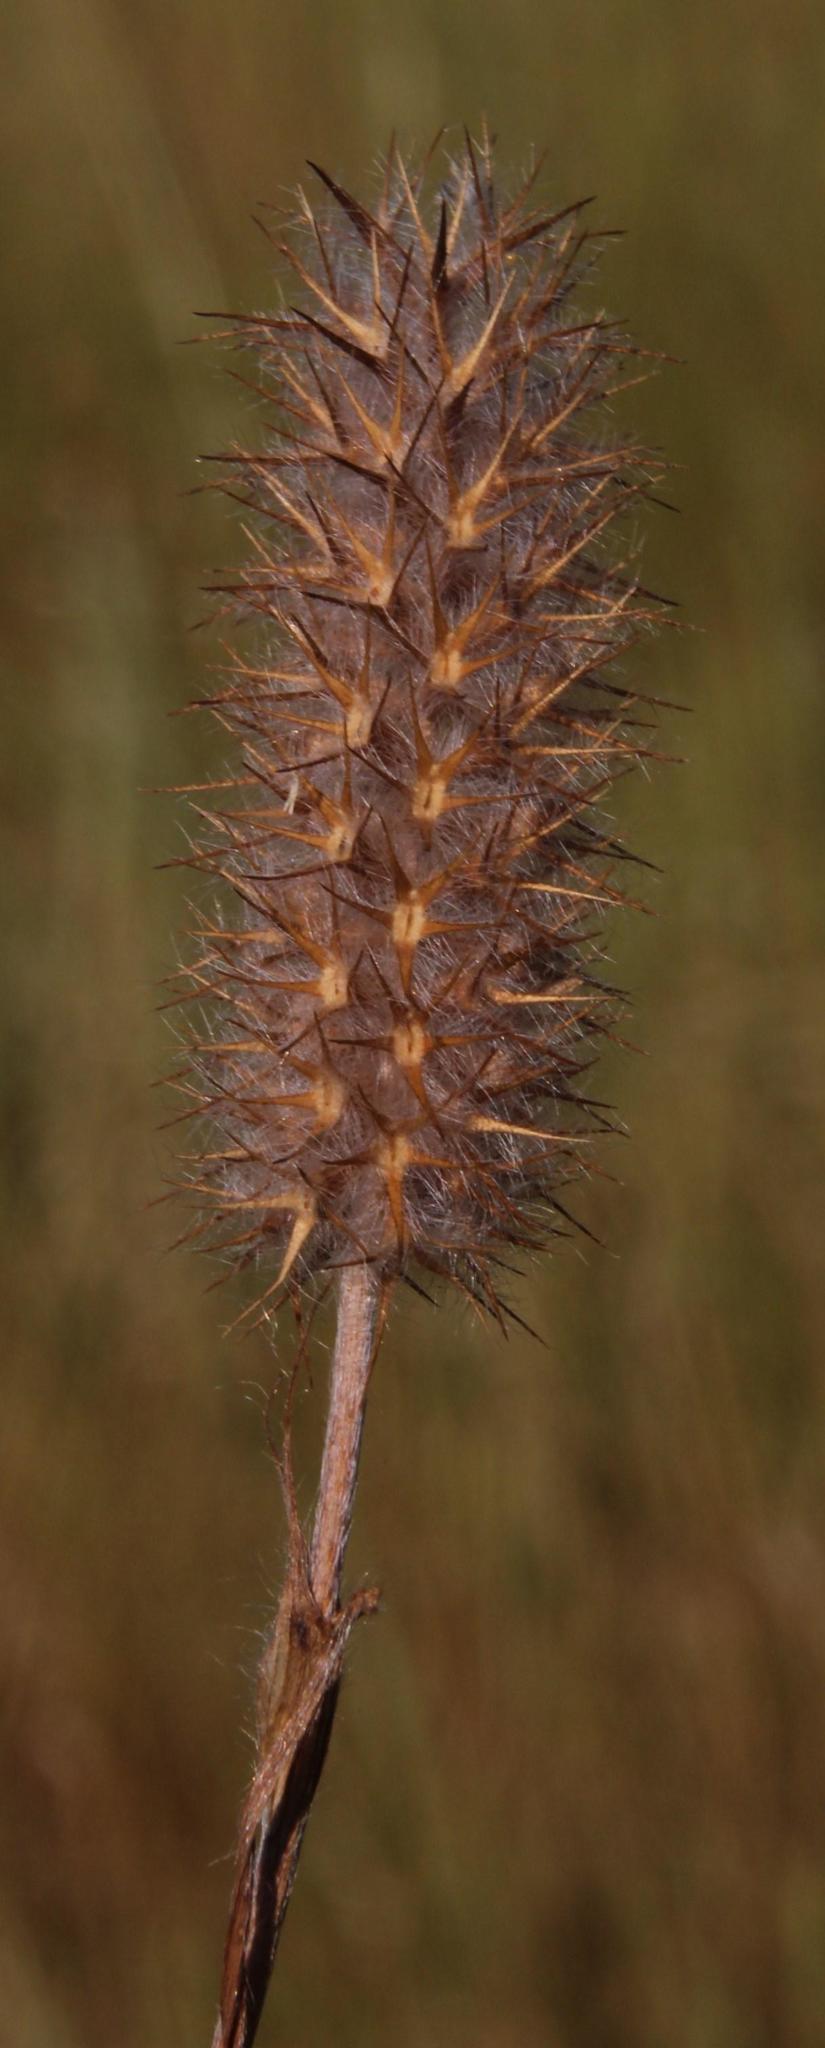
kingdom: Plantae
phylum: Tracheophyta
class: Magnoliopsida
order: Fabales
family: Fabaceae
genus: Trifolium
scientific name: Trifolium angustifolium
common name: Narrow clover
